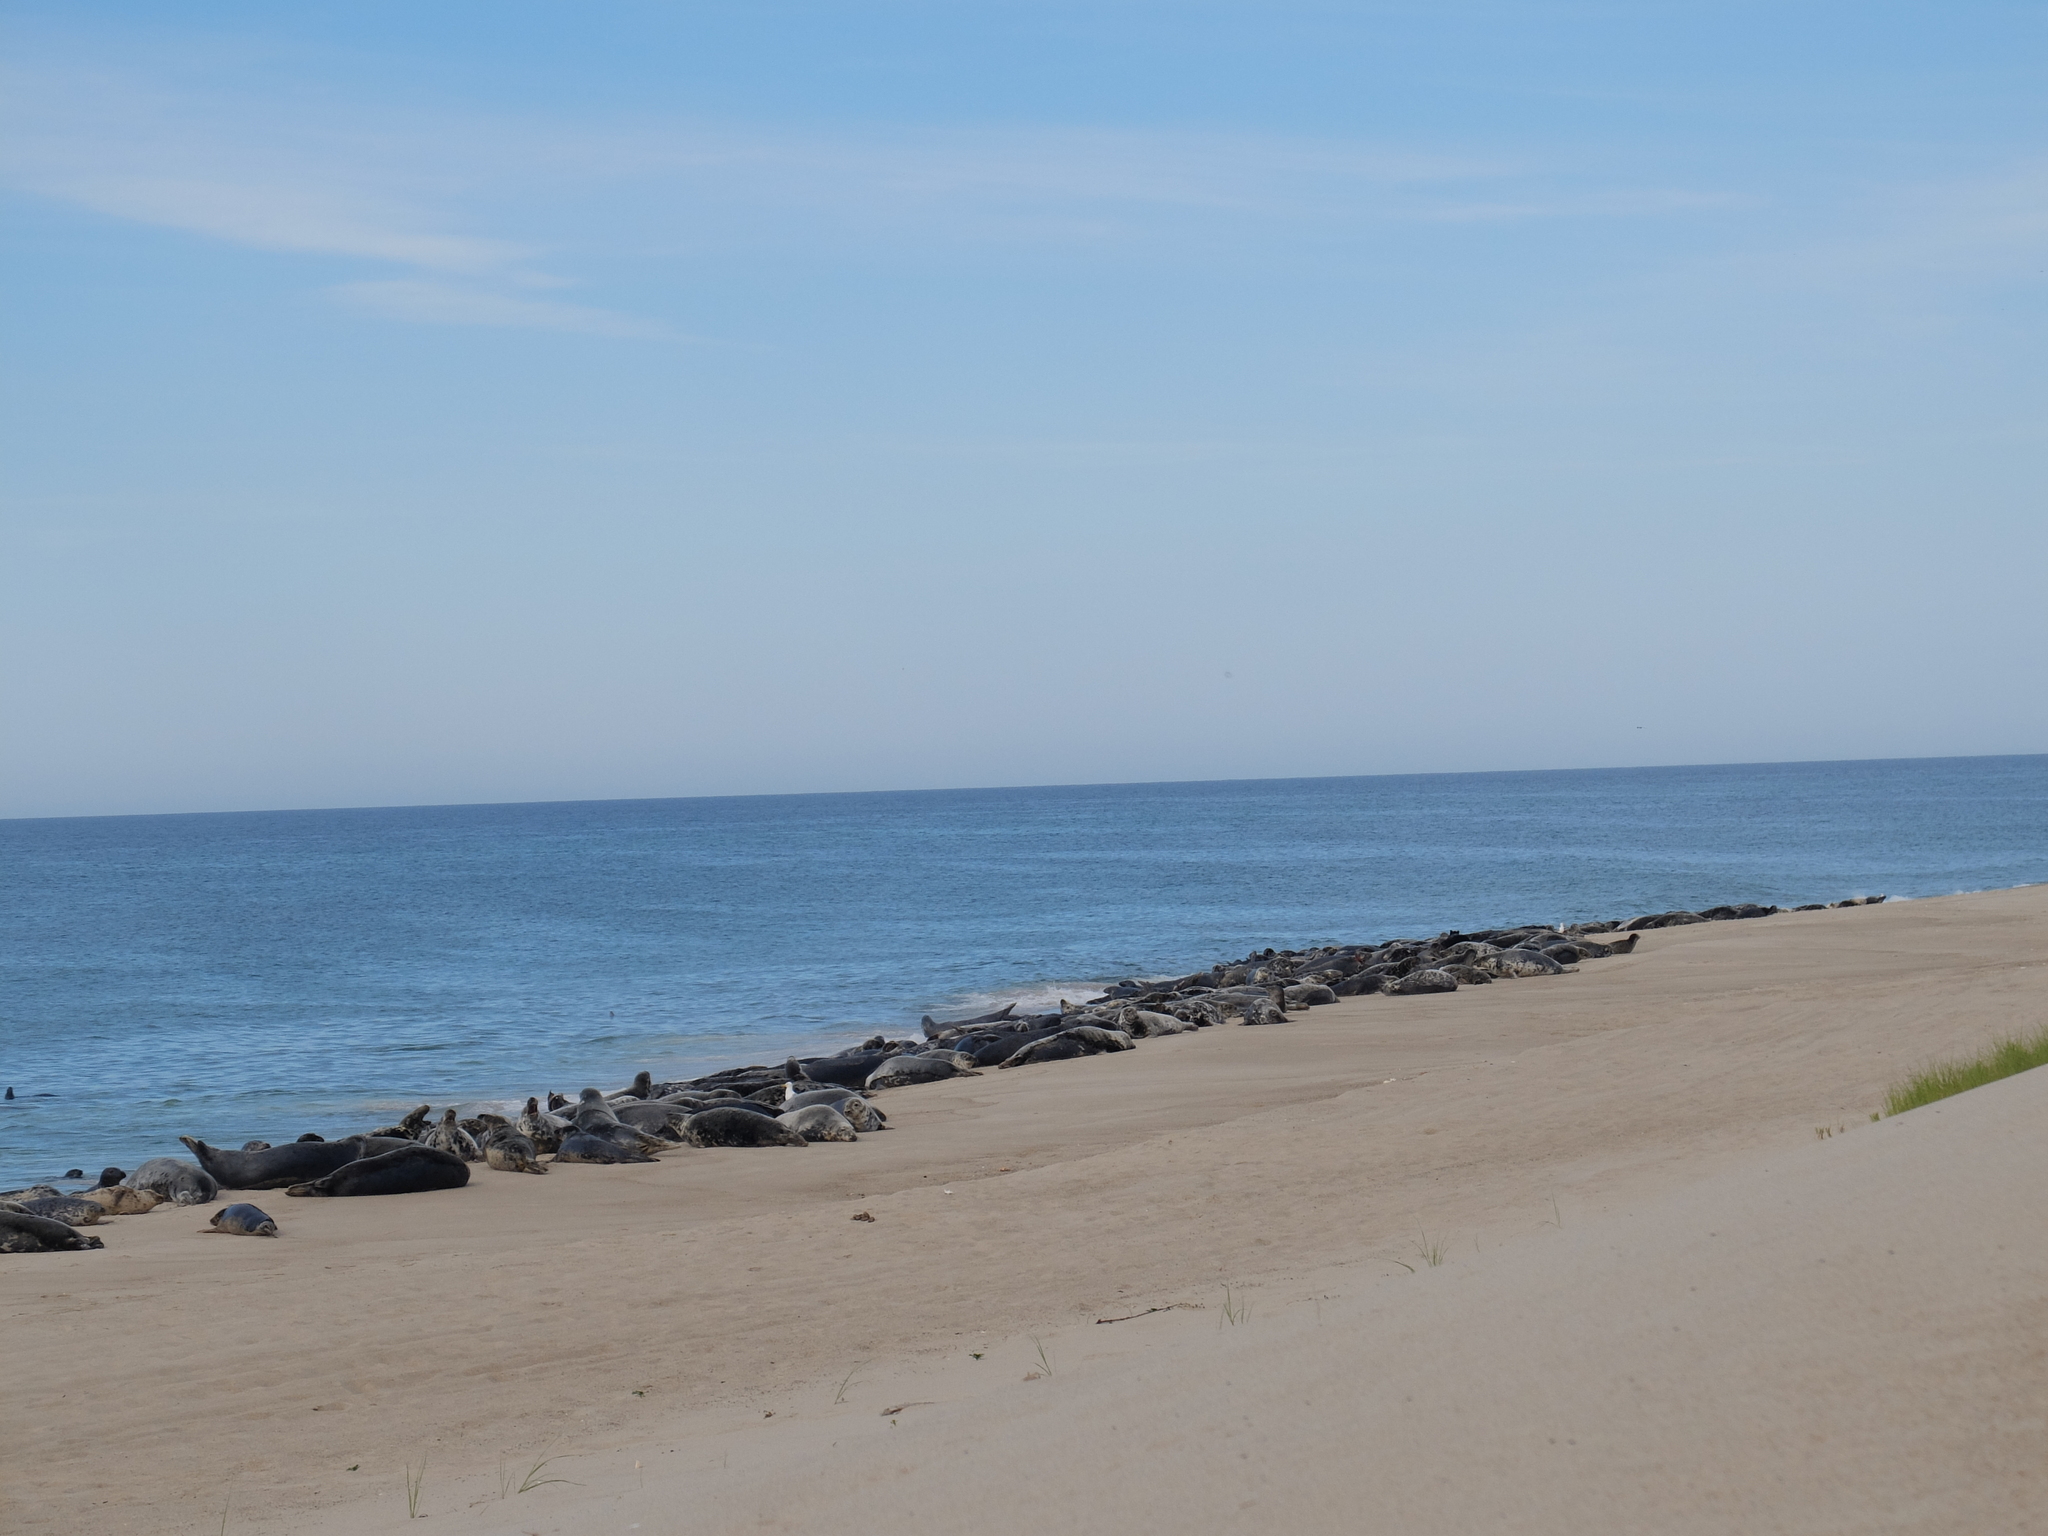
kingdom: Animalia
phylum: Chordata
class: Mammalia
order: Carnivora
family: Phocidae
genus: Halichoerus
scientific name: Halichoerus grypus
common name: Grey seal
